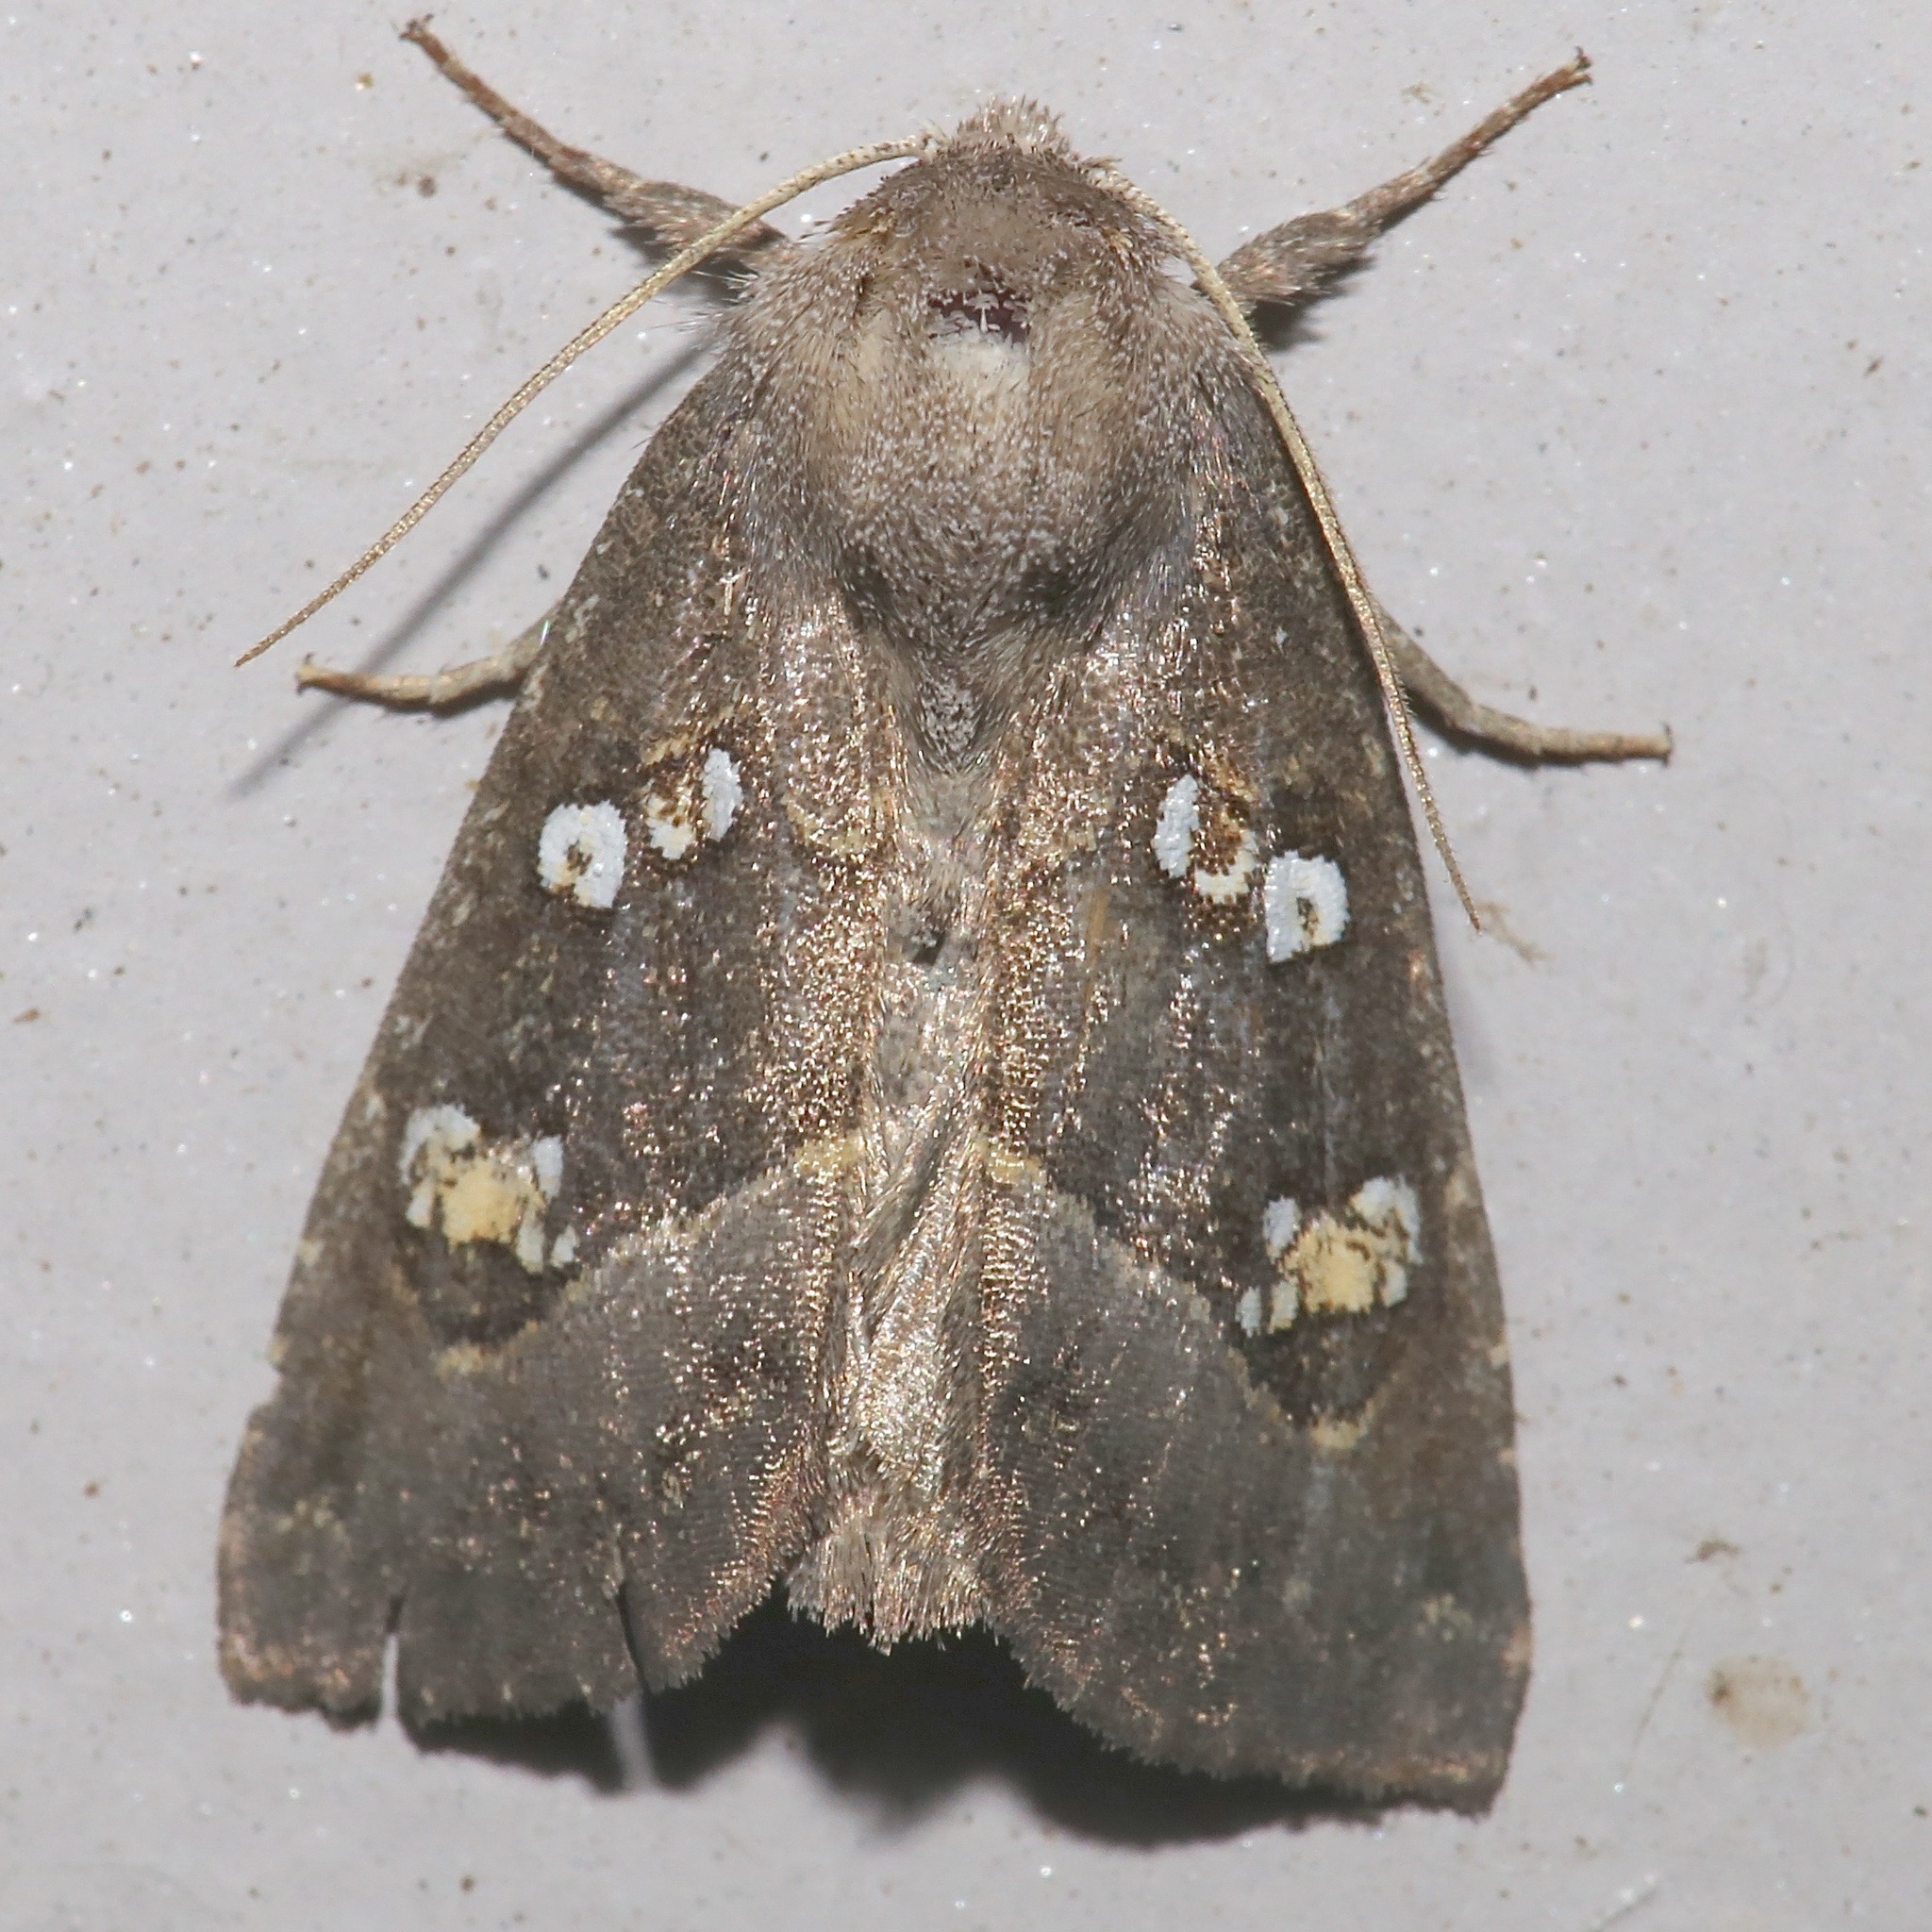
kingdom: Animalia
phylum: Arthropoda
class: Insecta
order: Lepidoptera
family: Noctuidae
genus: Papaipema
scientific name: Papaipema nebris
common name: Stalk borer
